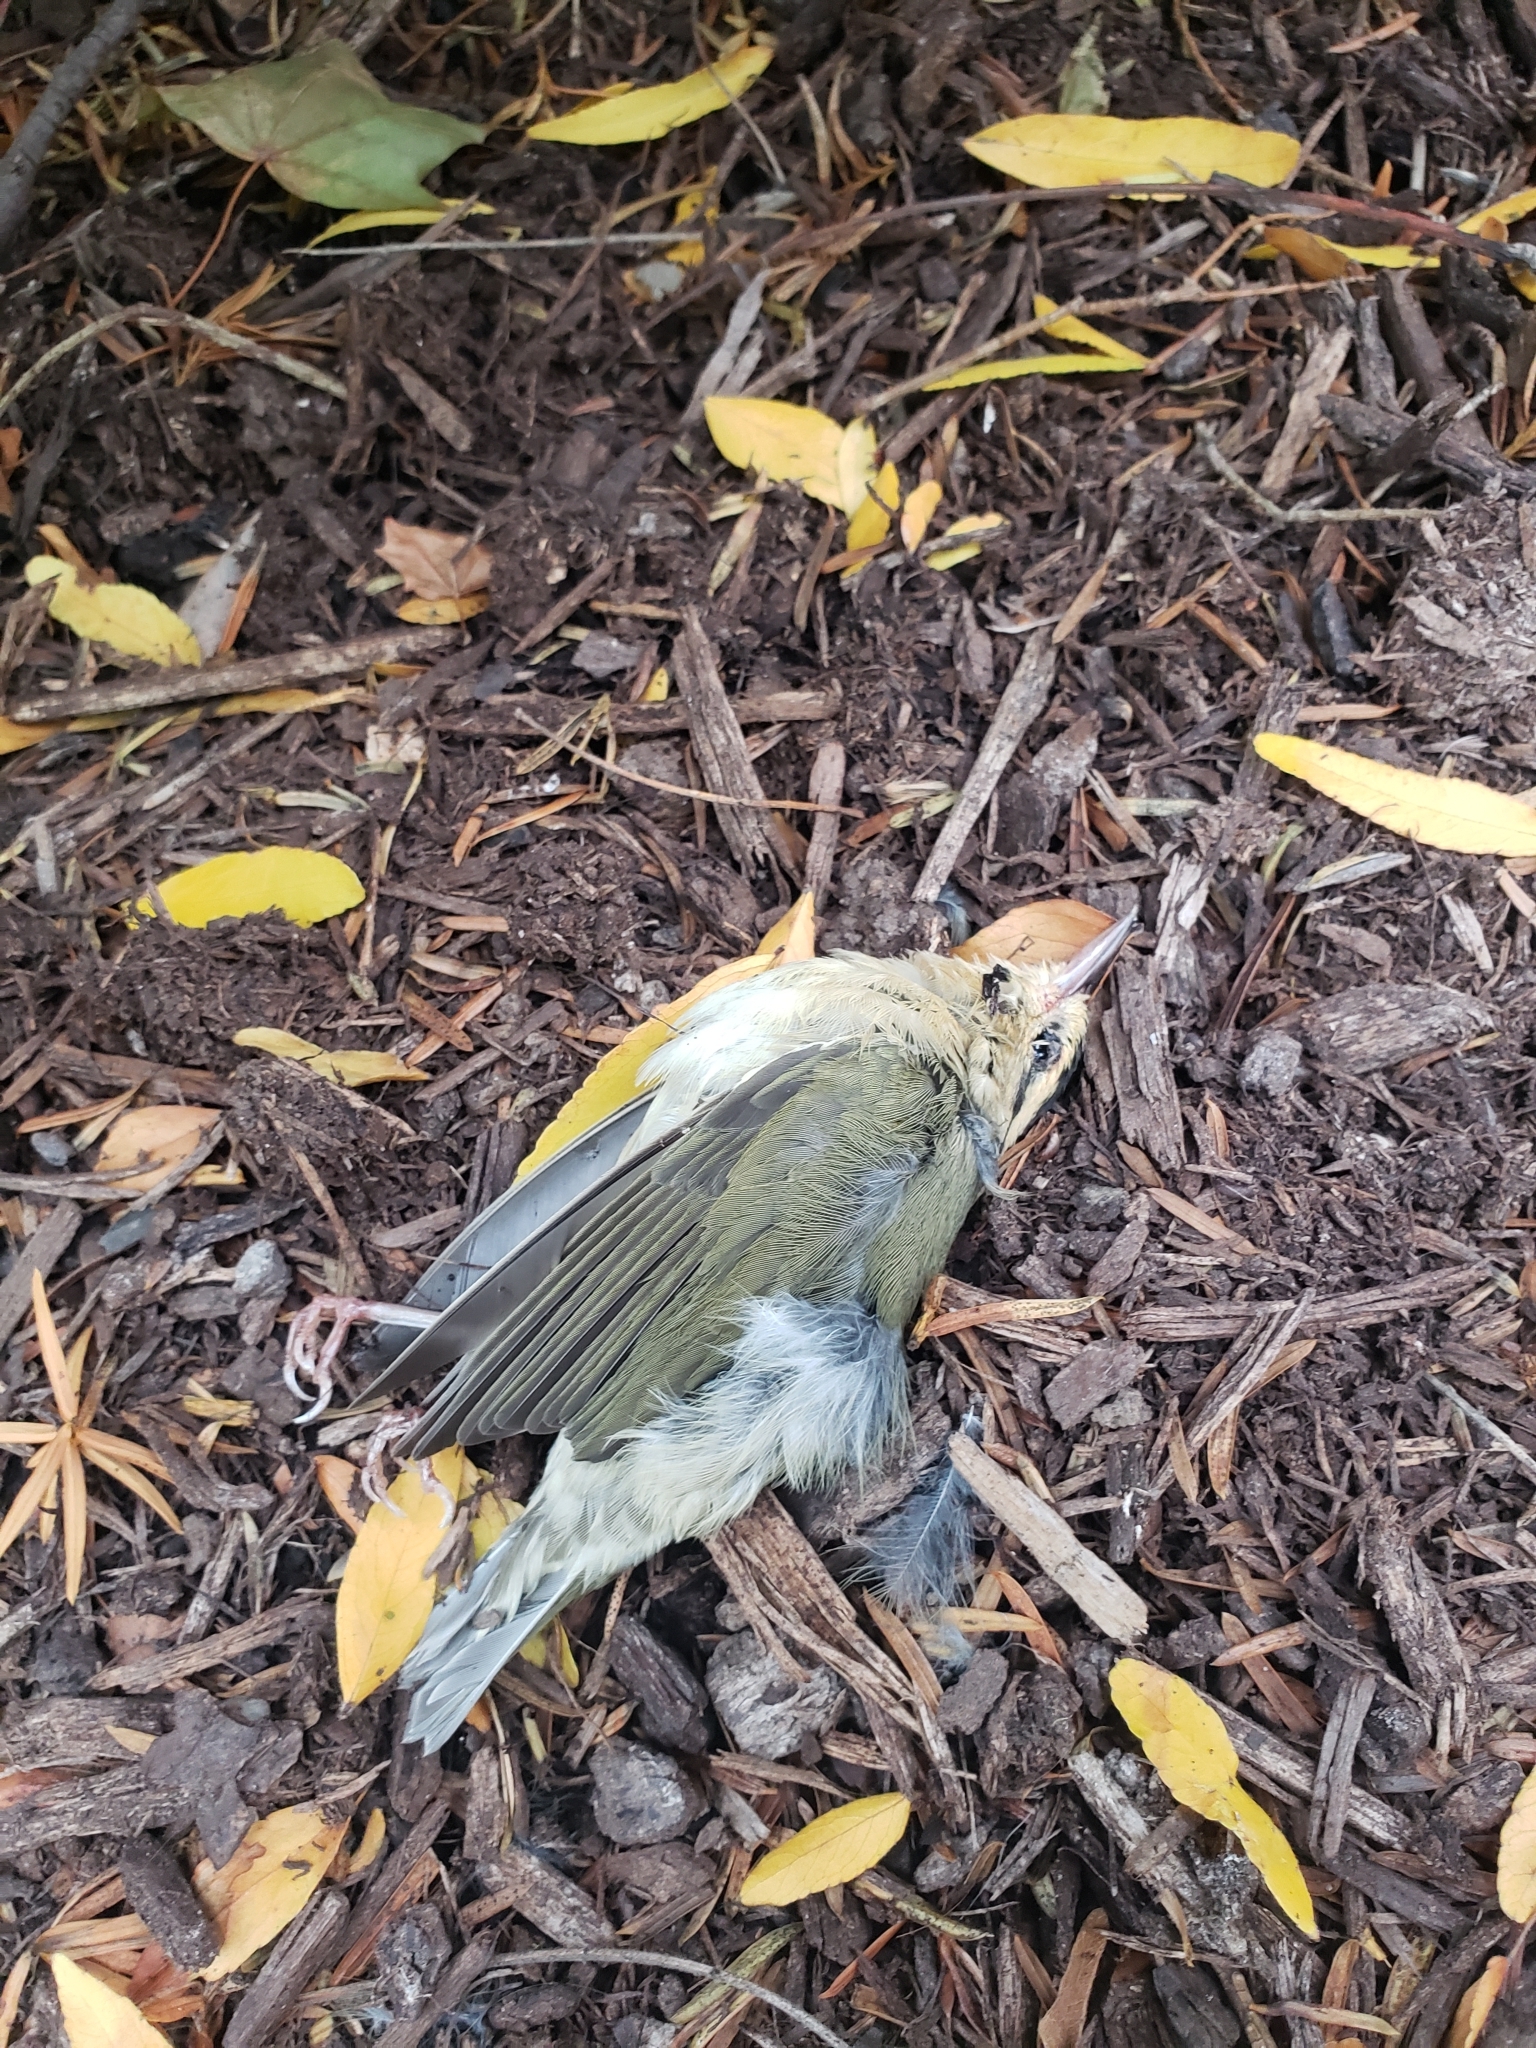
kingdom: Animalia
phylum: Chordata
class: Aves
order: Passeriformes
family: Parulidae
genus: Helmitheros
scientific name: Helmitheros vermivorum
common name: Worm-eating warbler
